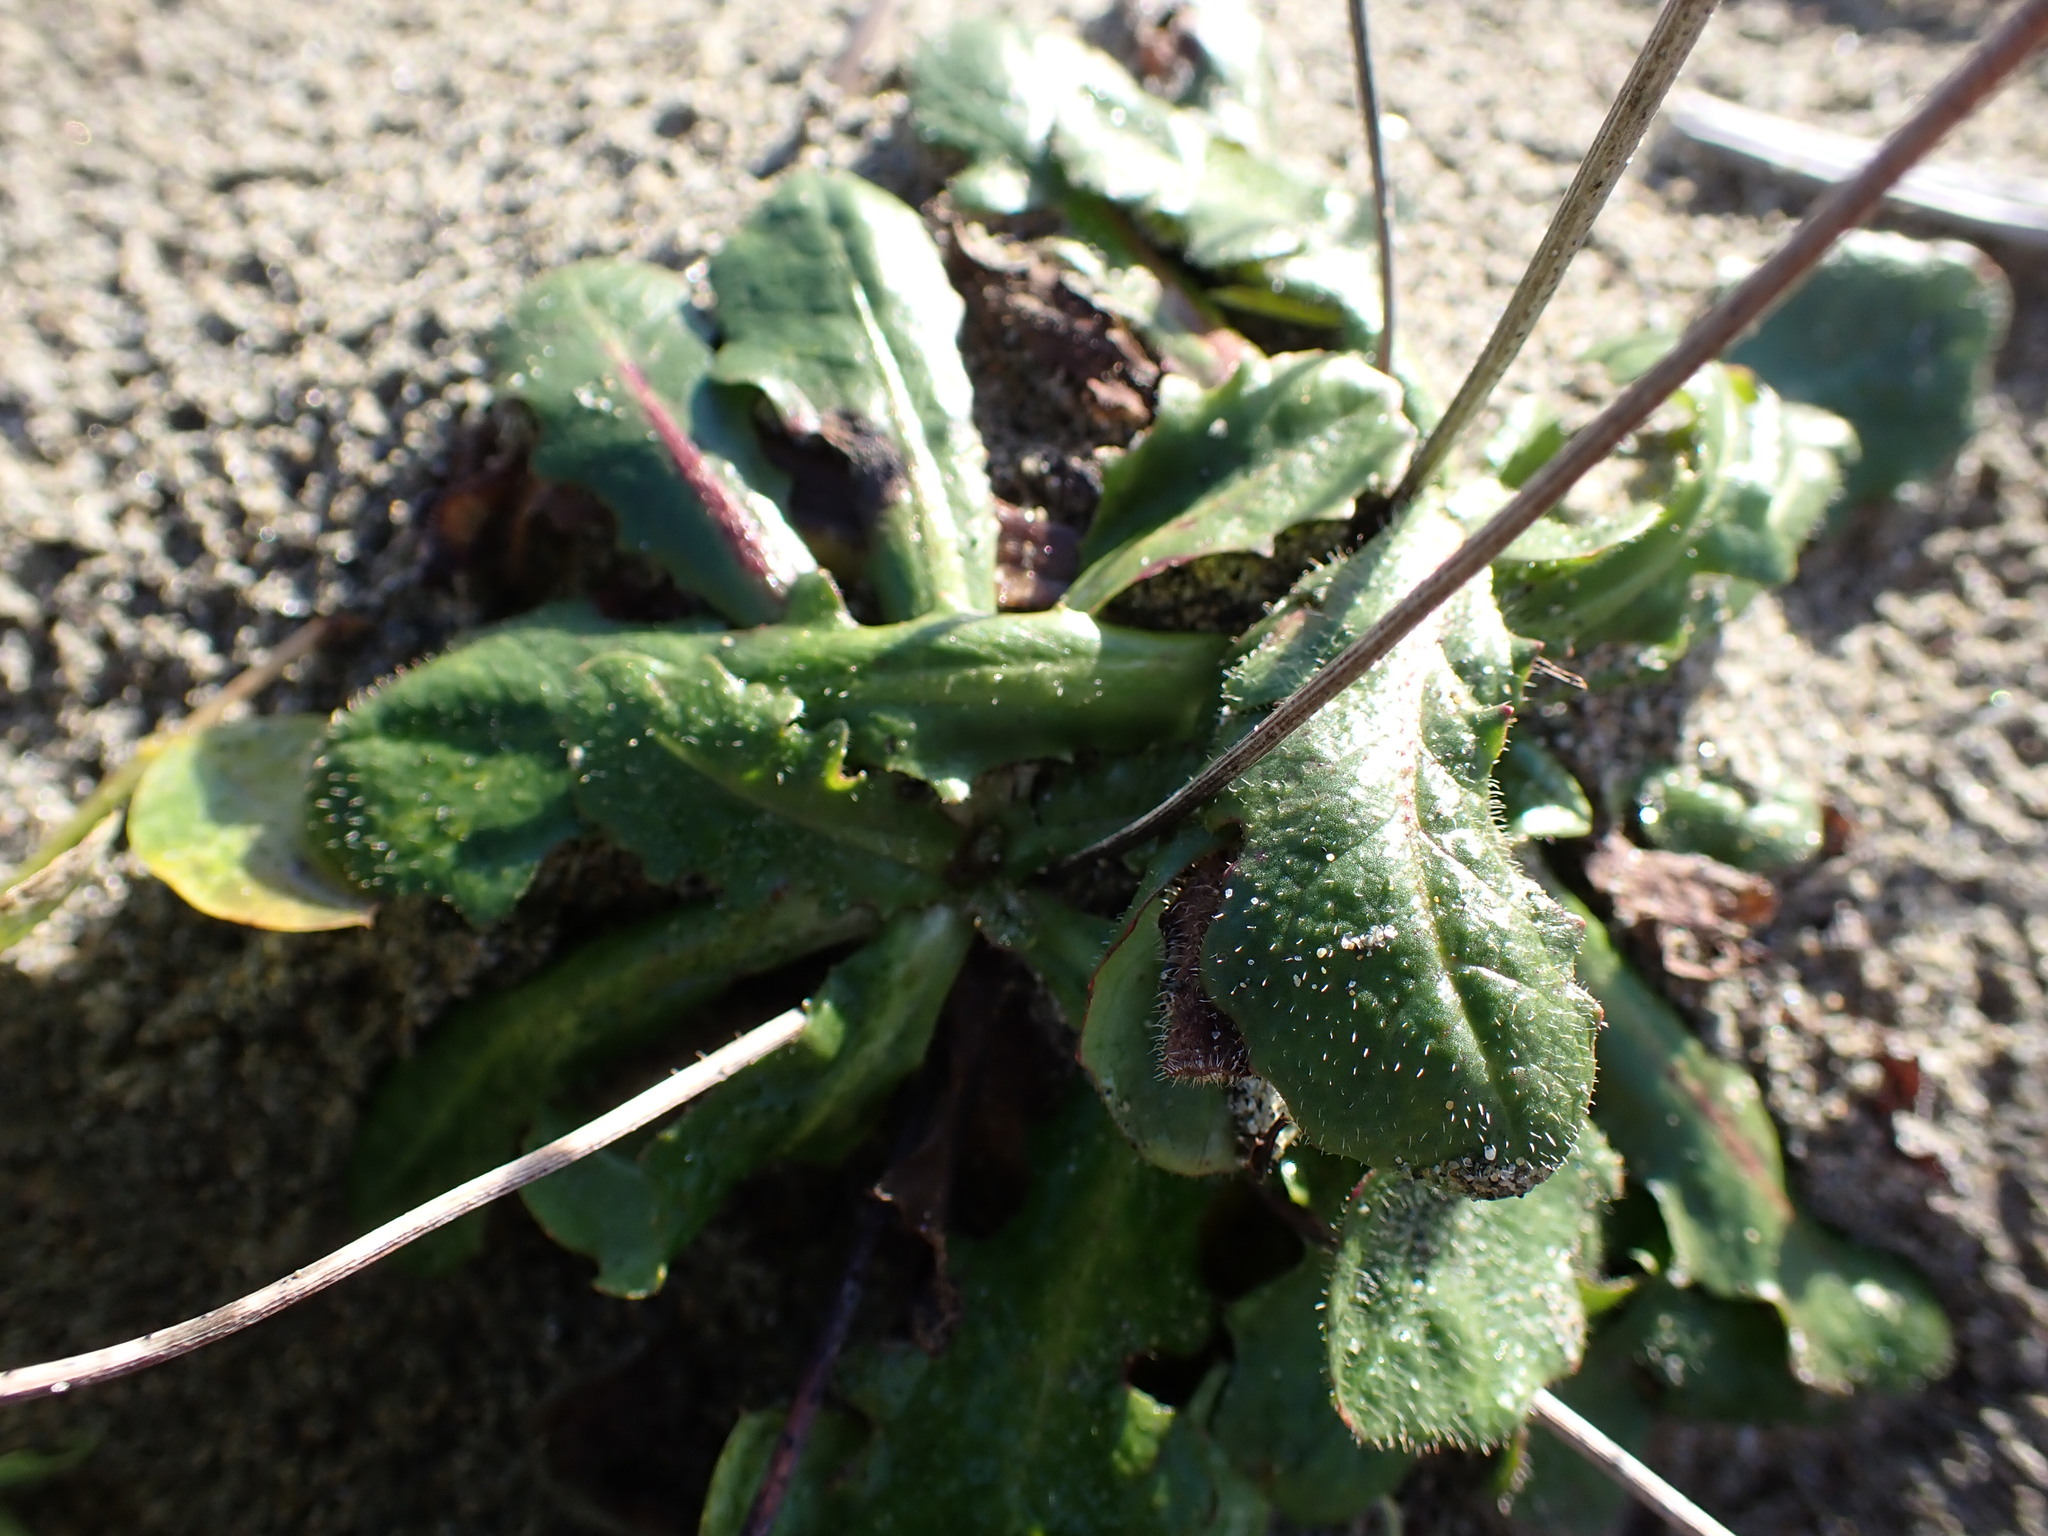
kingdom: Plantae
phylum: Tracheophyta
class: Magnoliopsida
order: Asterales
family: Asteraceae
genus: Hypochaeris
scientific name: Hypochaeris radicata
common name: Flatweed
